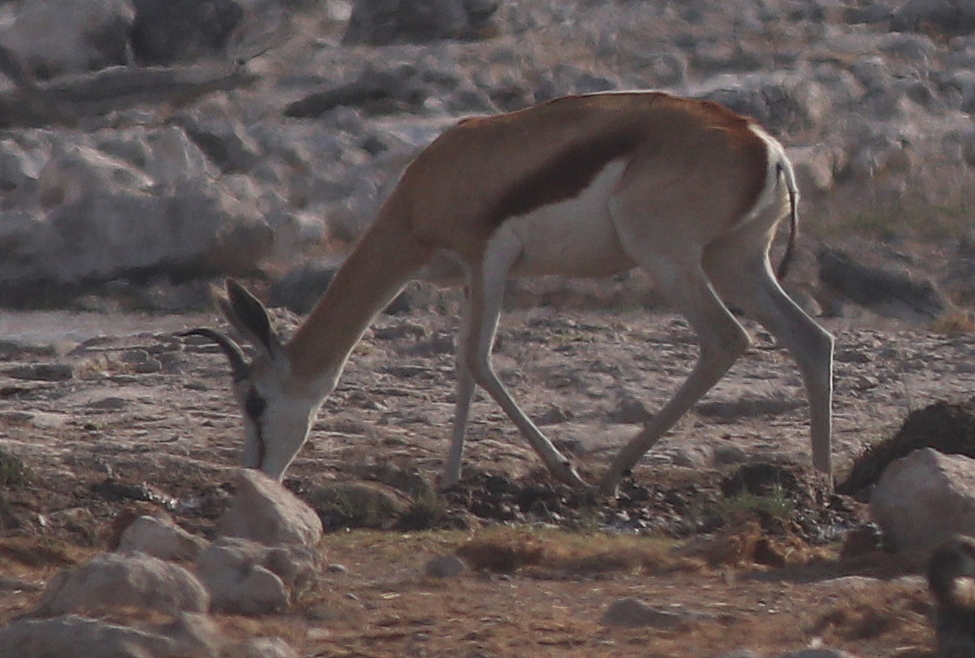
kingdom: Animalia
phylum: Chordata
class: Mammalia
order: Artiodactyla
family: Bovidae
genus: Antidorcas
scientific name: Antidorcas marsupialis
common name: Springbok
